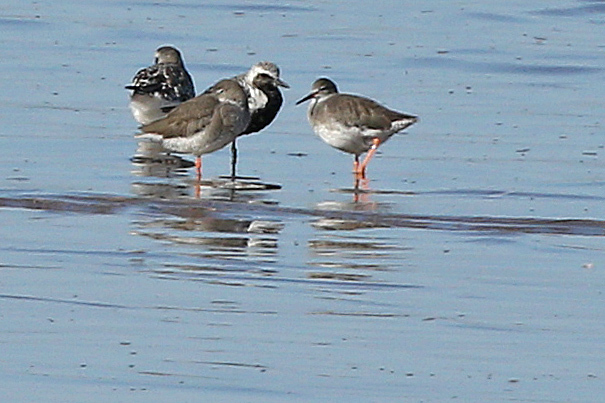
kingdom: Animalia
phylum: Chordata
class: Aves
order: Charadriiformes
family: Charadriidae
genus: Pluvialis
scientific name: Pluvialis squatarola
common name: Grey plover
